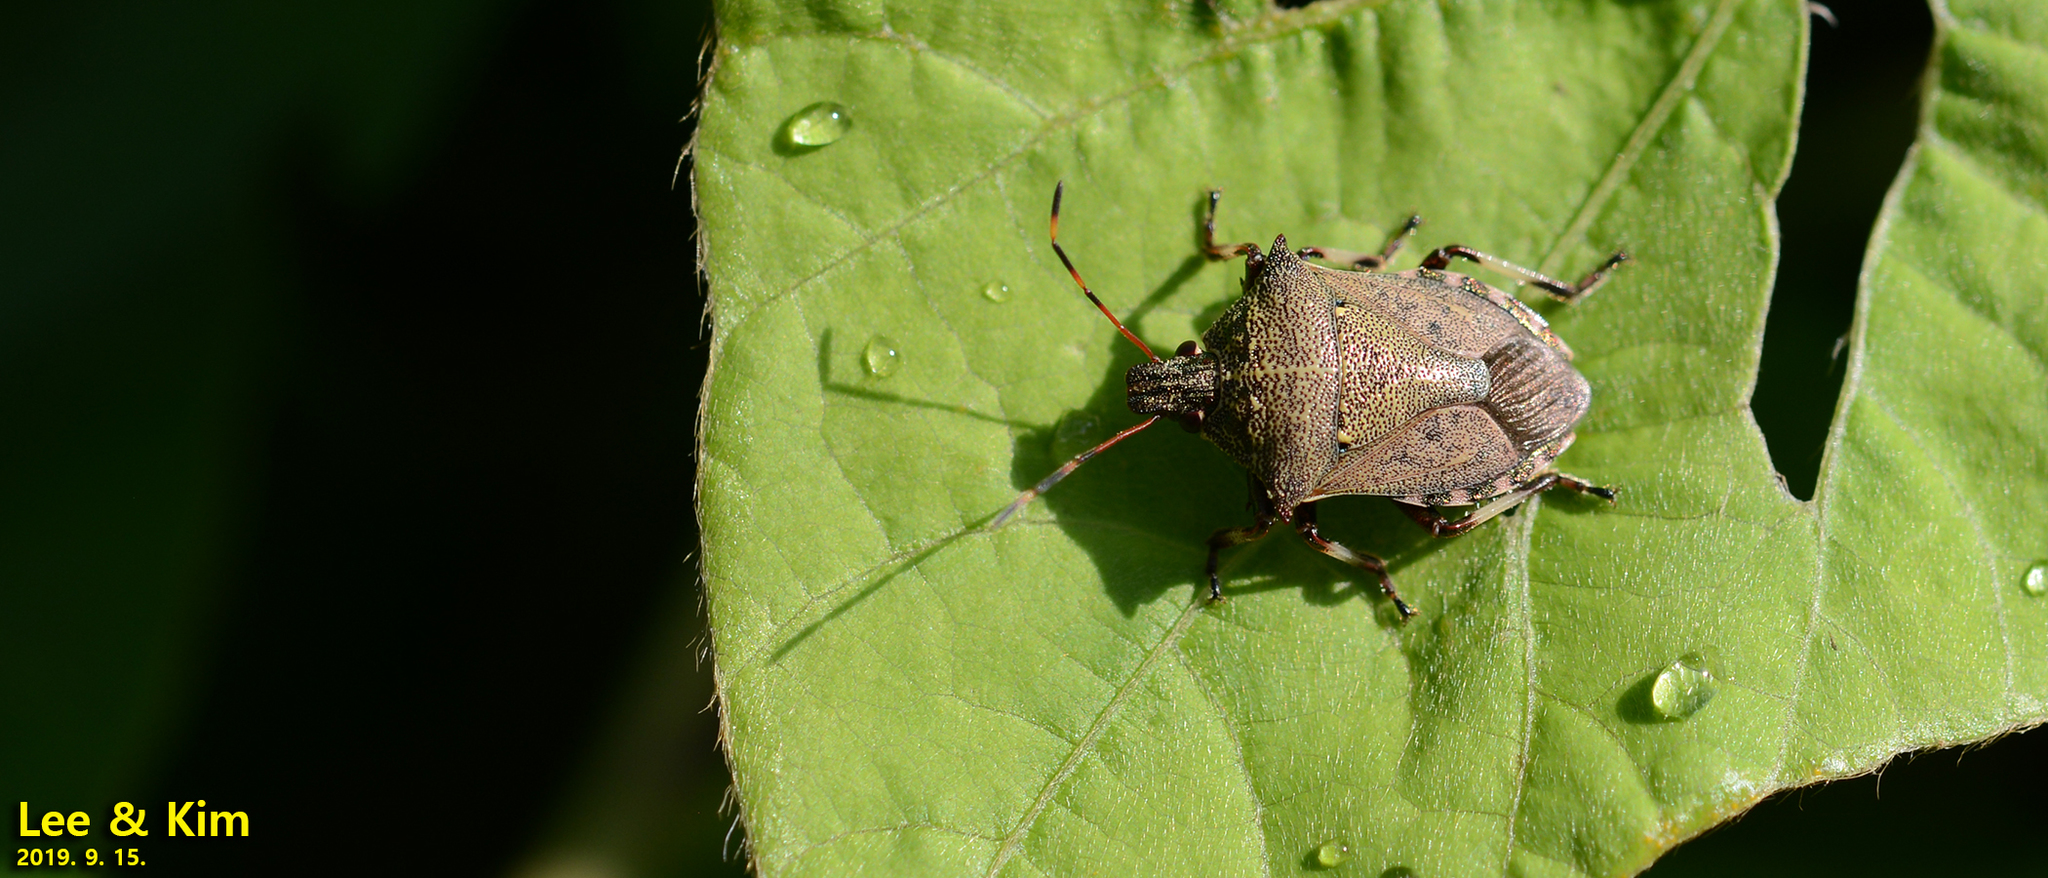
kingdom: Animalia
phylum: Arthropoda
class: Insecta
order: Hemiptera
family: Pentatomidae
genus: Picromerus
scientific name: Picromerus lewisi
